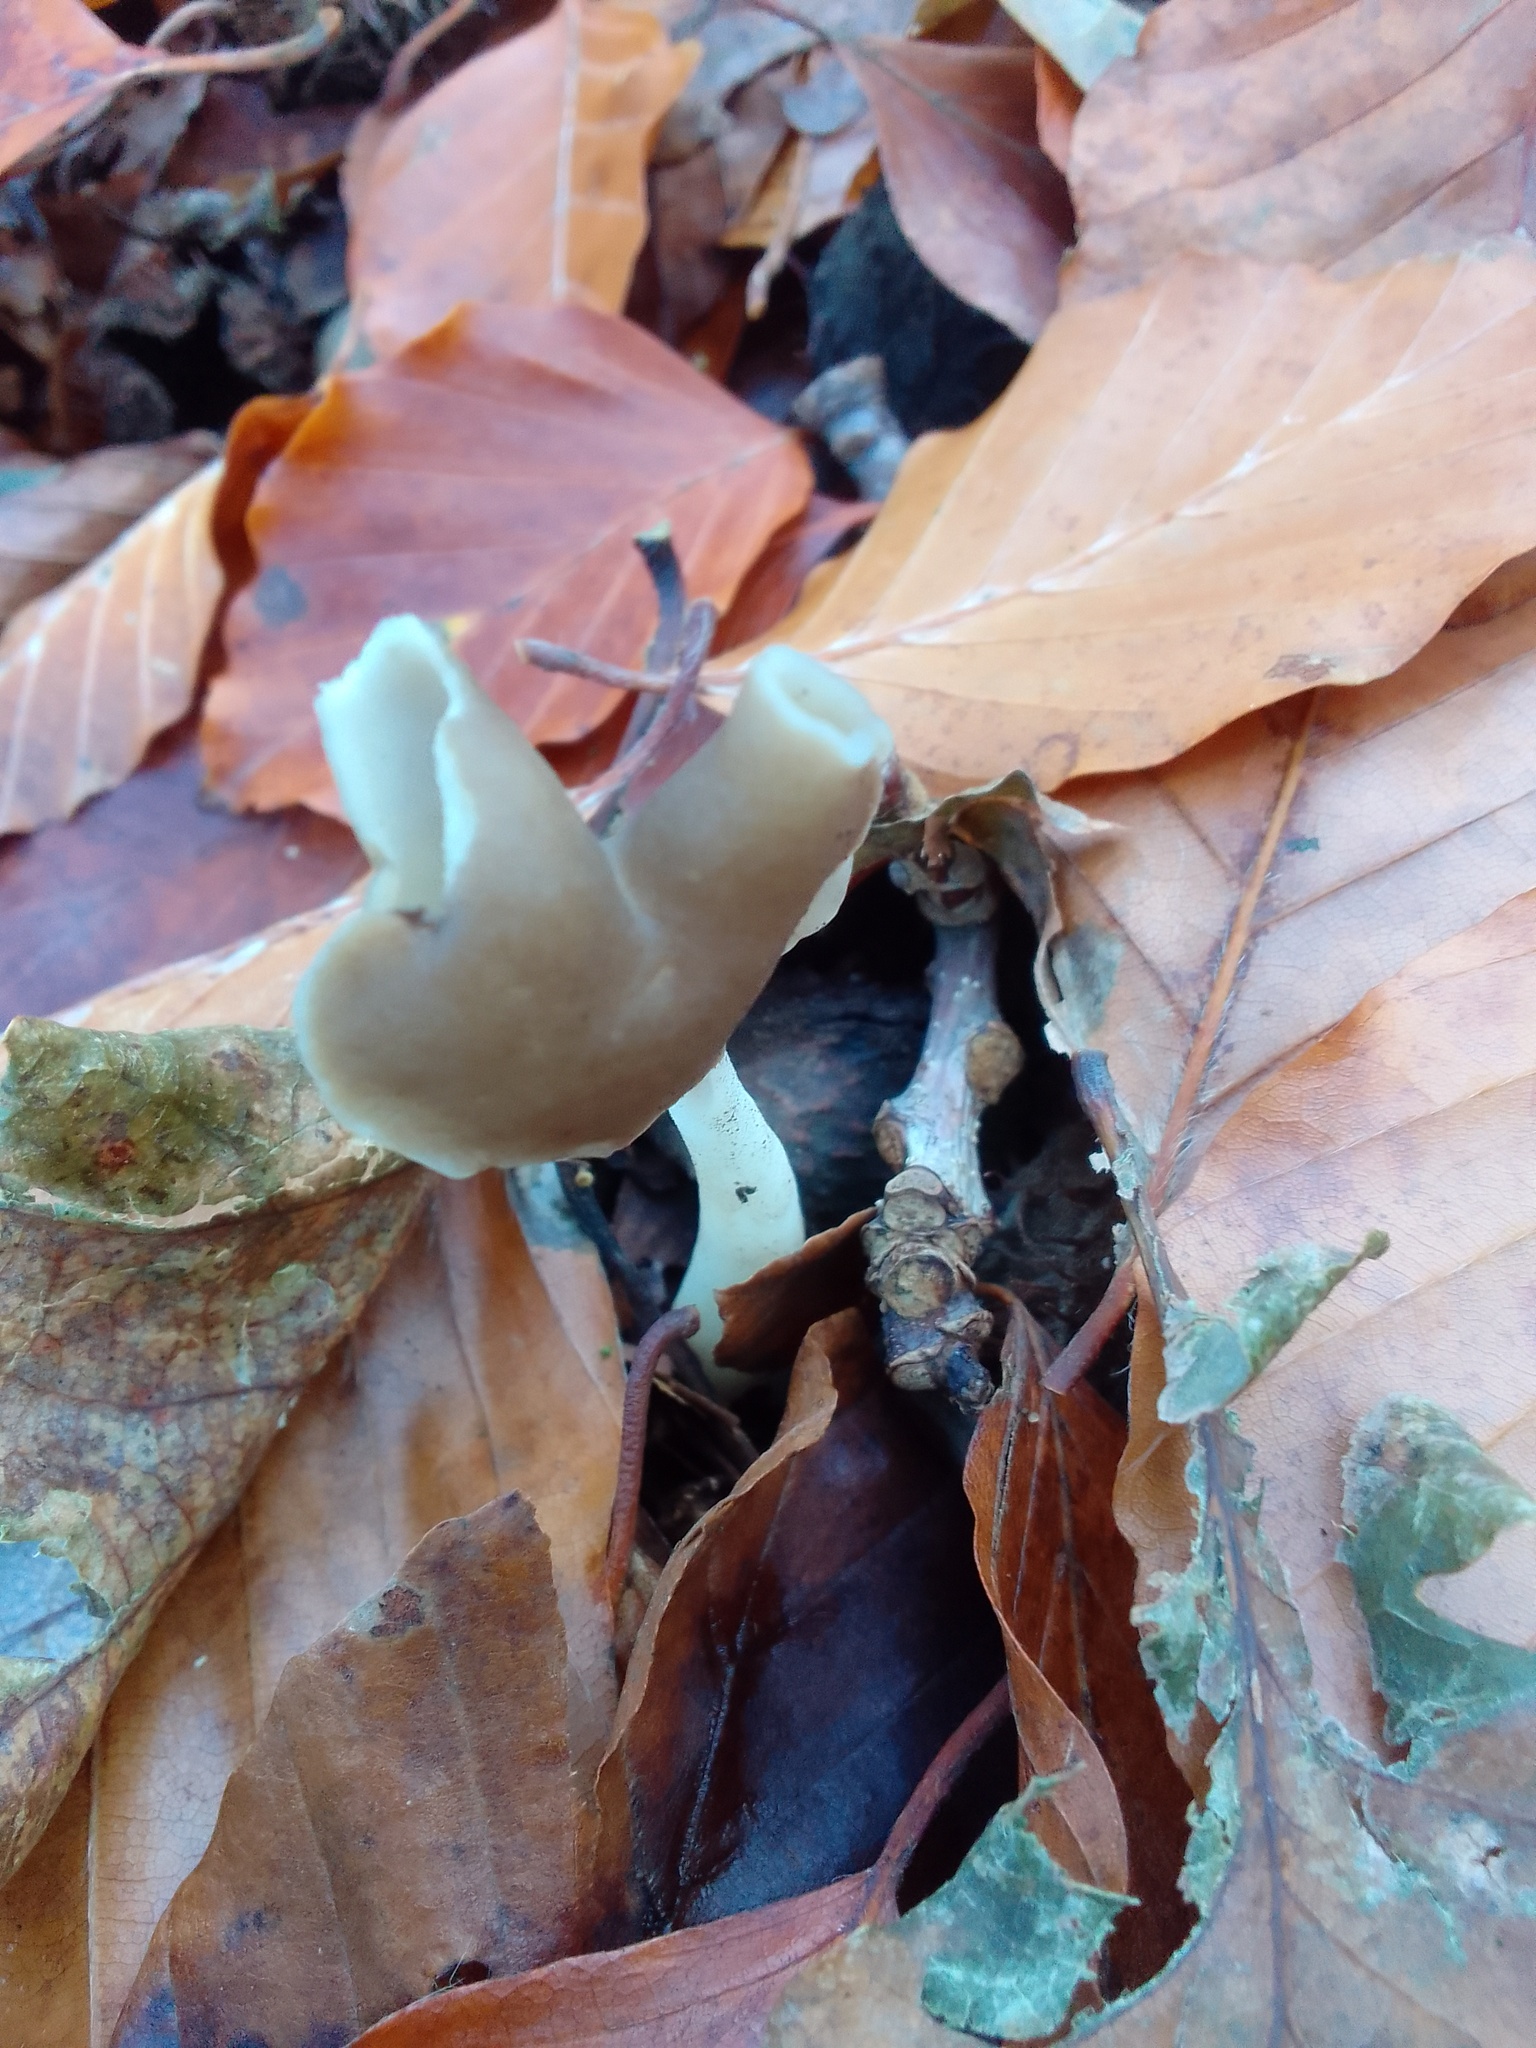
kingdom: Fungi
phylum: Ascomycota
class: Pezizomycetes
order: Pezizales
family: Helvellaceae
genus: Helvella
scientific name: Helvella elastica
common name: Elastic saddle
